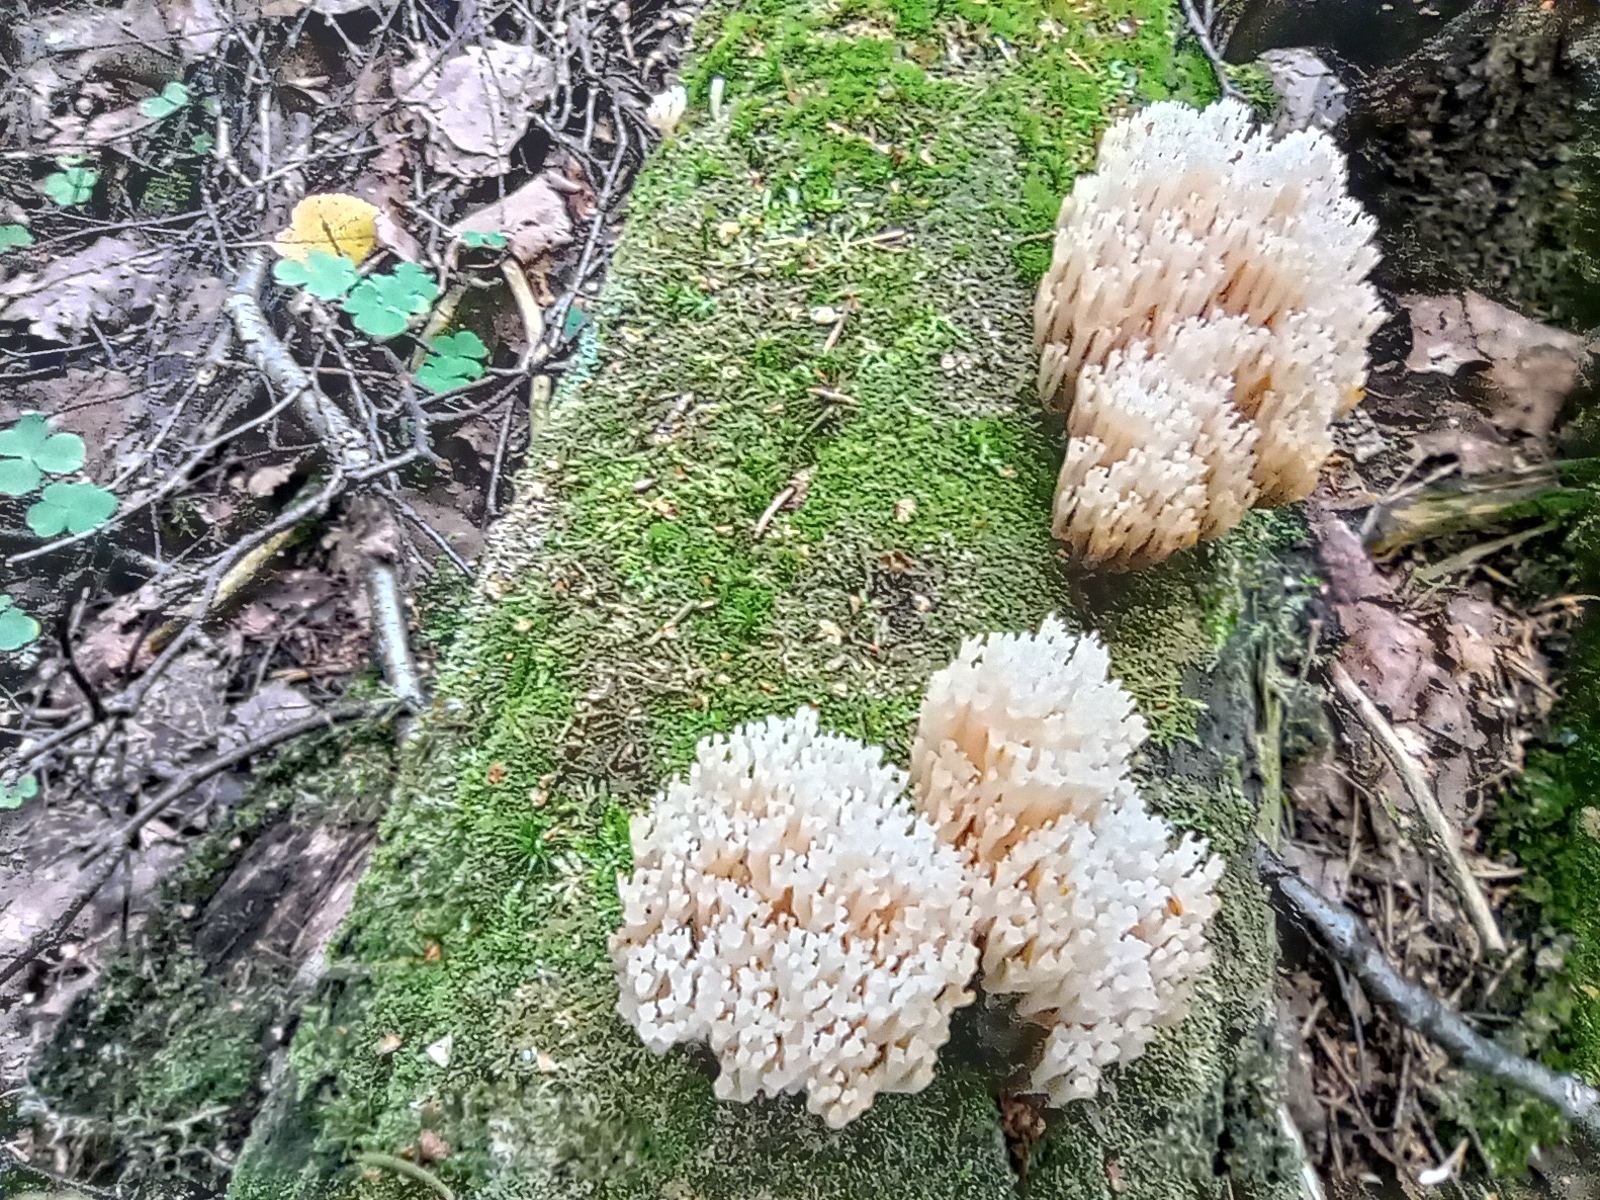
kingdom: Fungi
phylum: Basidiomycota
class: Agaricomycetes
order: Russulales
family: Auriscalpiaceae
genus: Artomyces
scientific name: Artomyces pyxidatus
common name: Crown-tipped coral fungus
